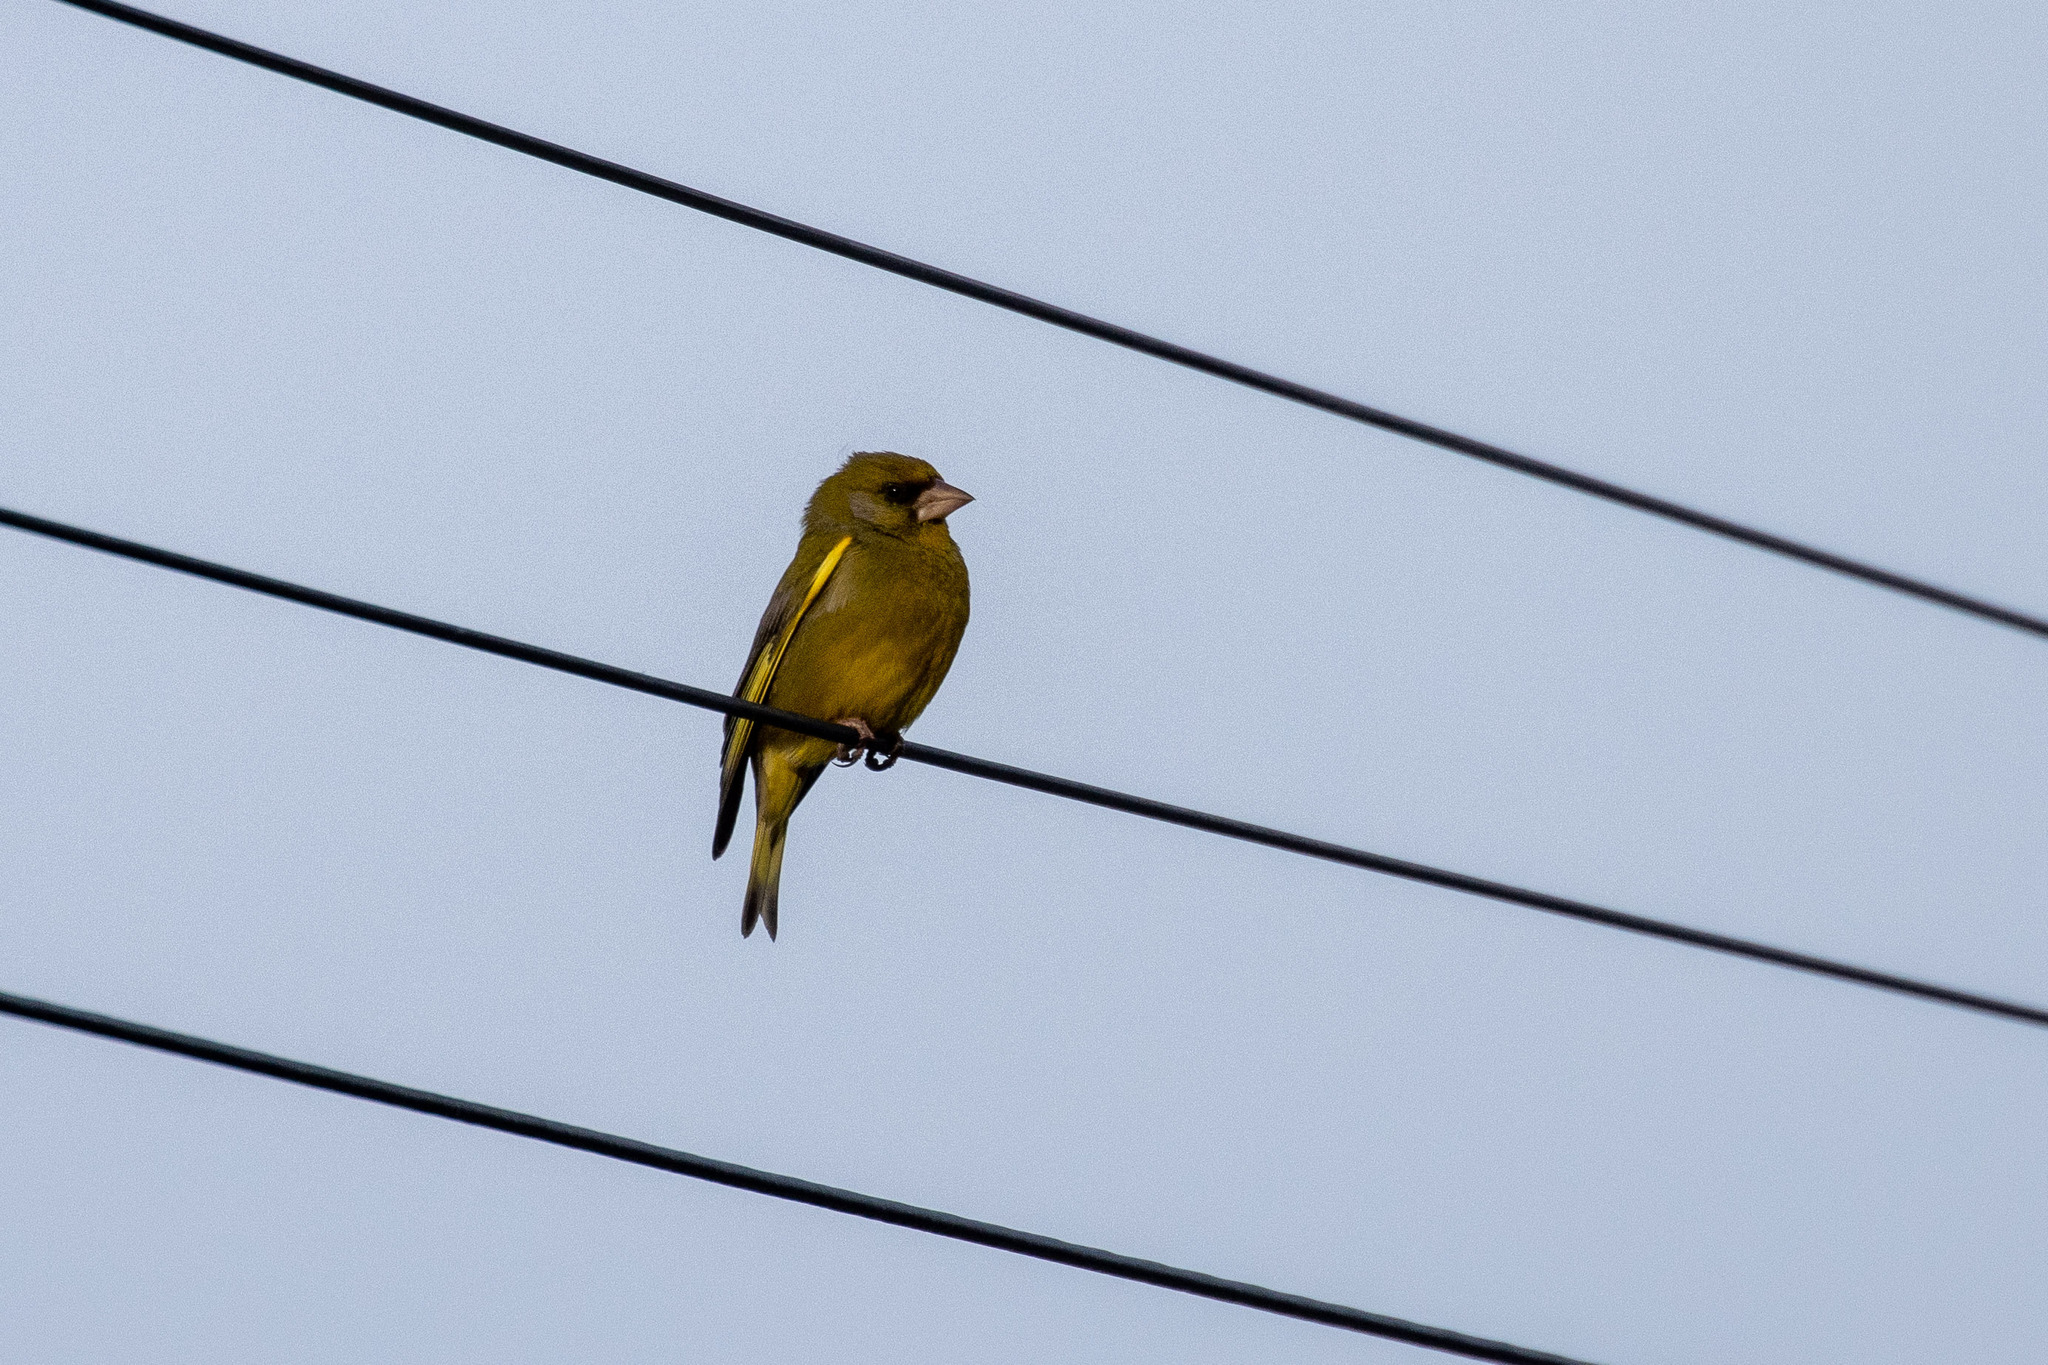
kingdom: Plantae
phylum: Tracheophyta
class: Liliopsida
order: Poales
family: Poaceae
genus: Chloris
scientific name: Chloris chloris
